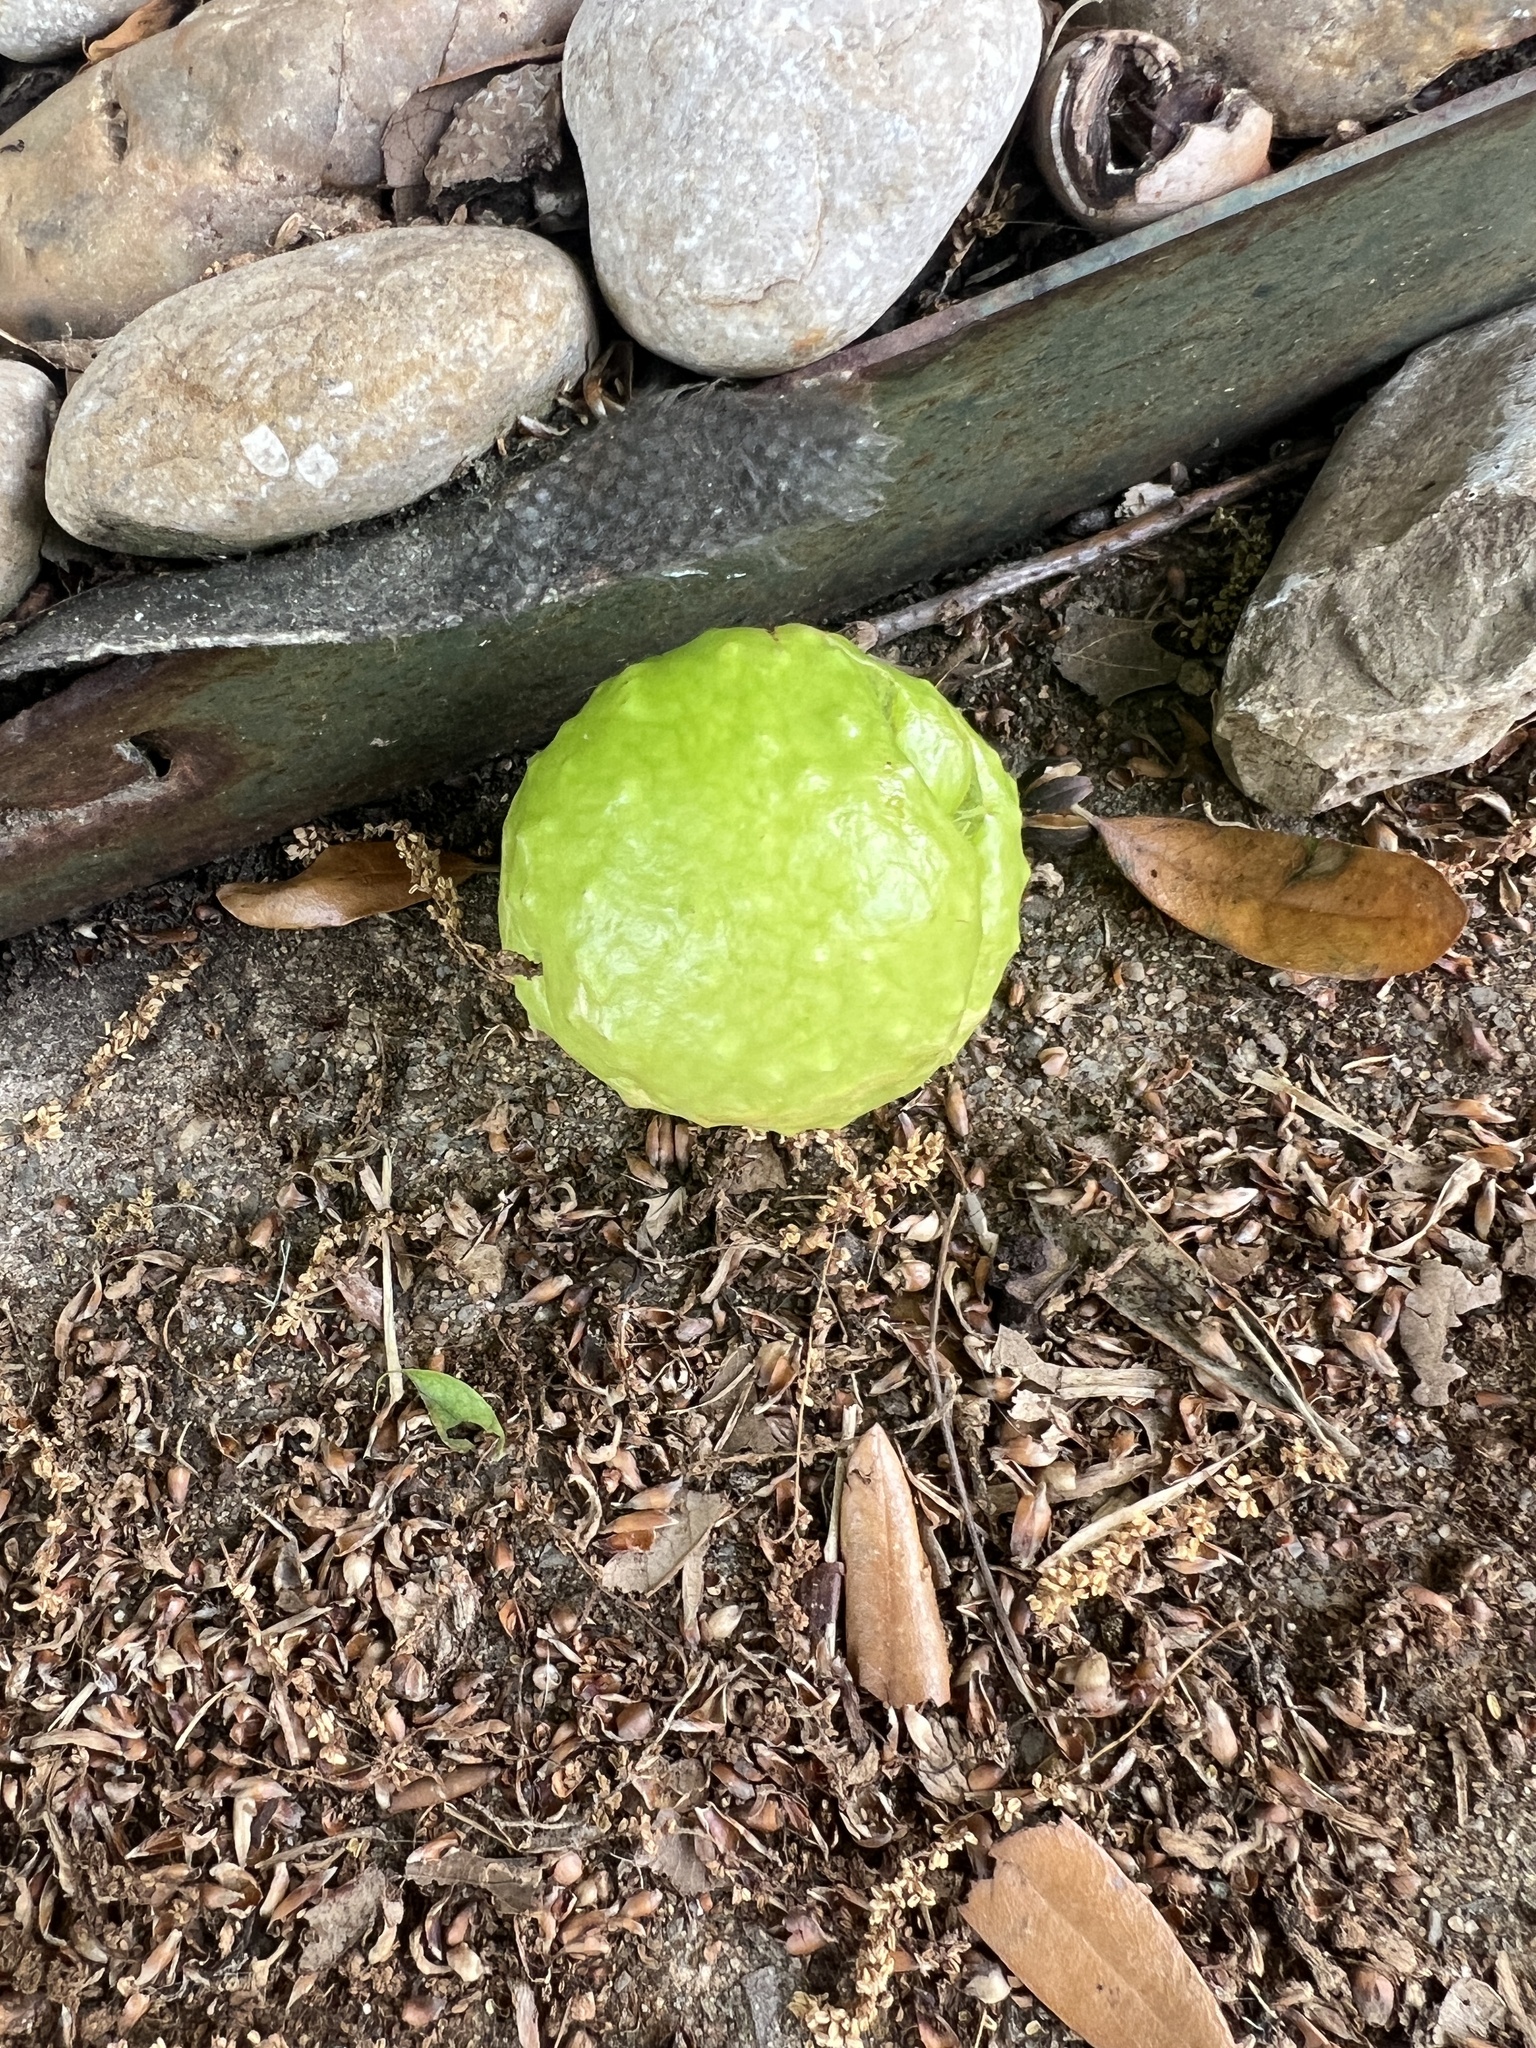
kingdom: Animalia
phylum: Arthropoda
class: Insecta
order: Hymenoptera
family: Cynipidae
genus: Amphibolips
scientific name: Amphibolips
